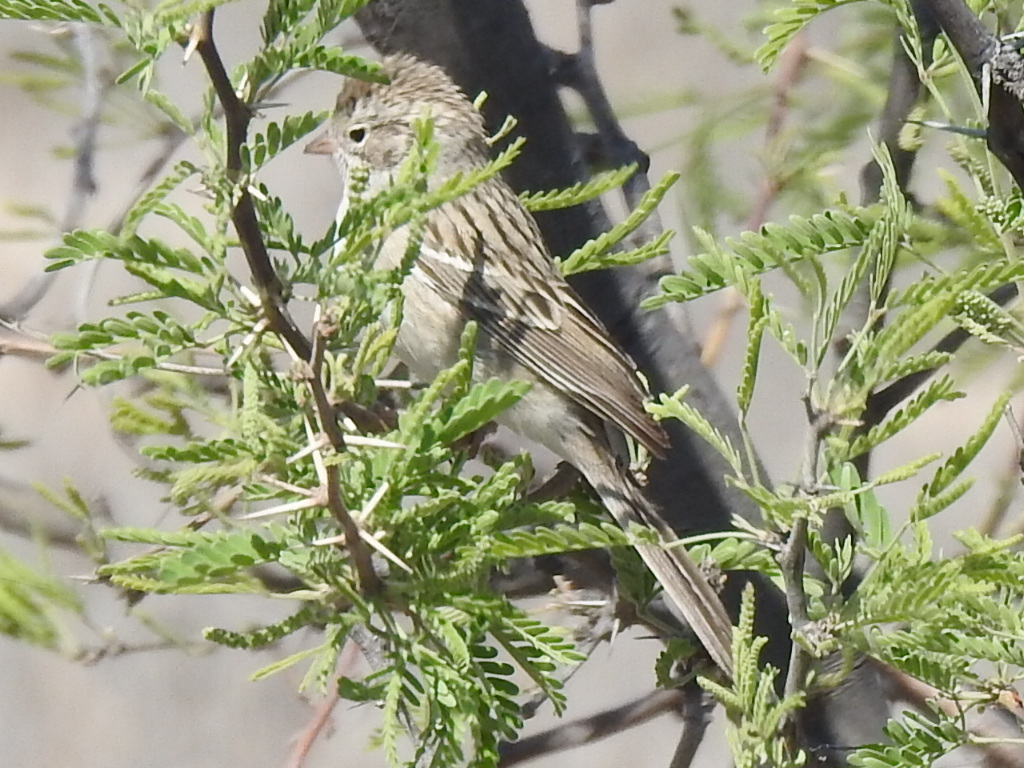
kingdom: Animalia
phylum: Chordata
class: Aves
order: Passeriformes
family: Passerellidae
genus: Spizella
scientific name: Spizella breweri
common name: Brewer's sparrow
